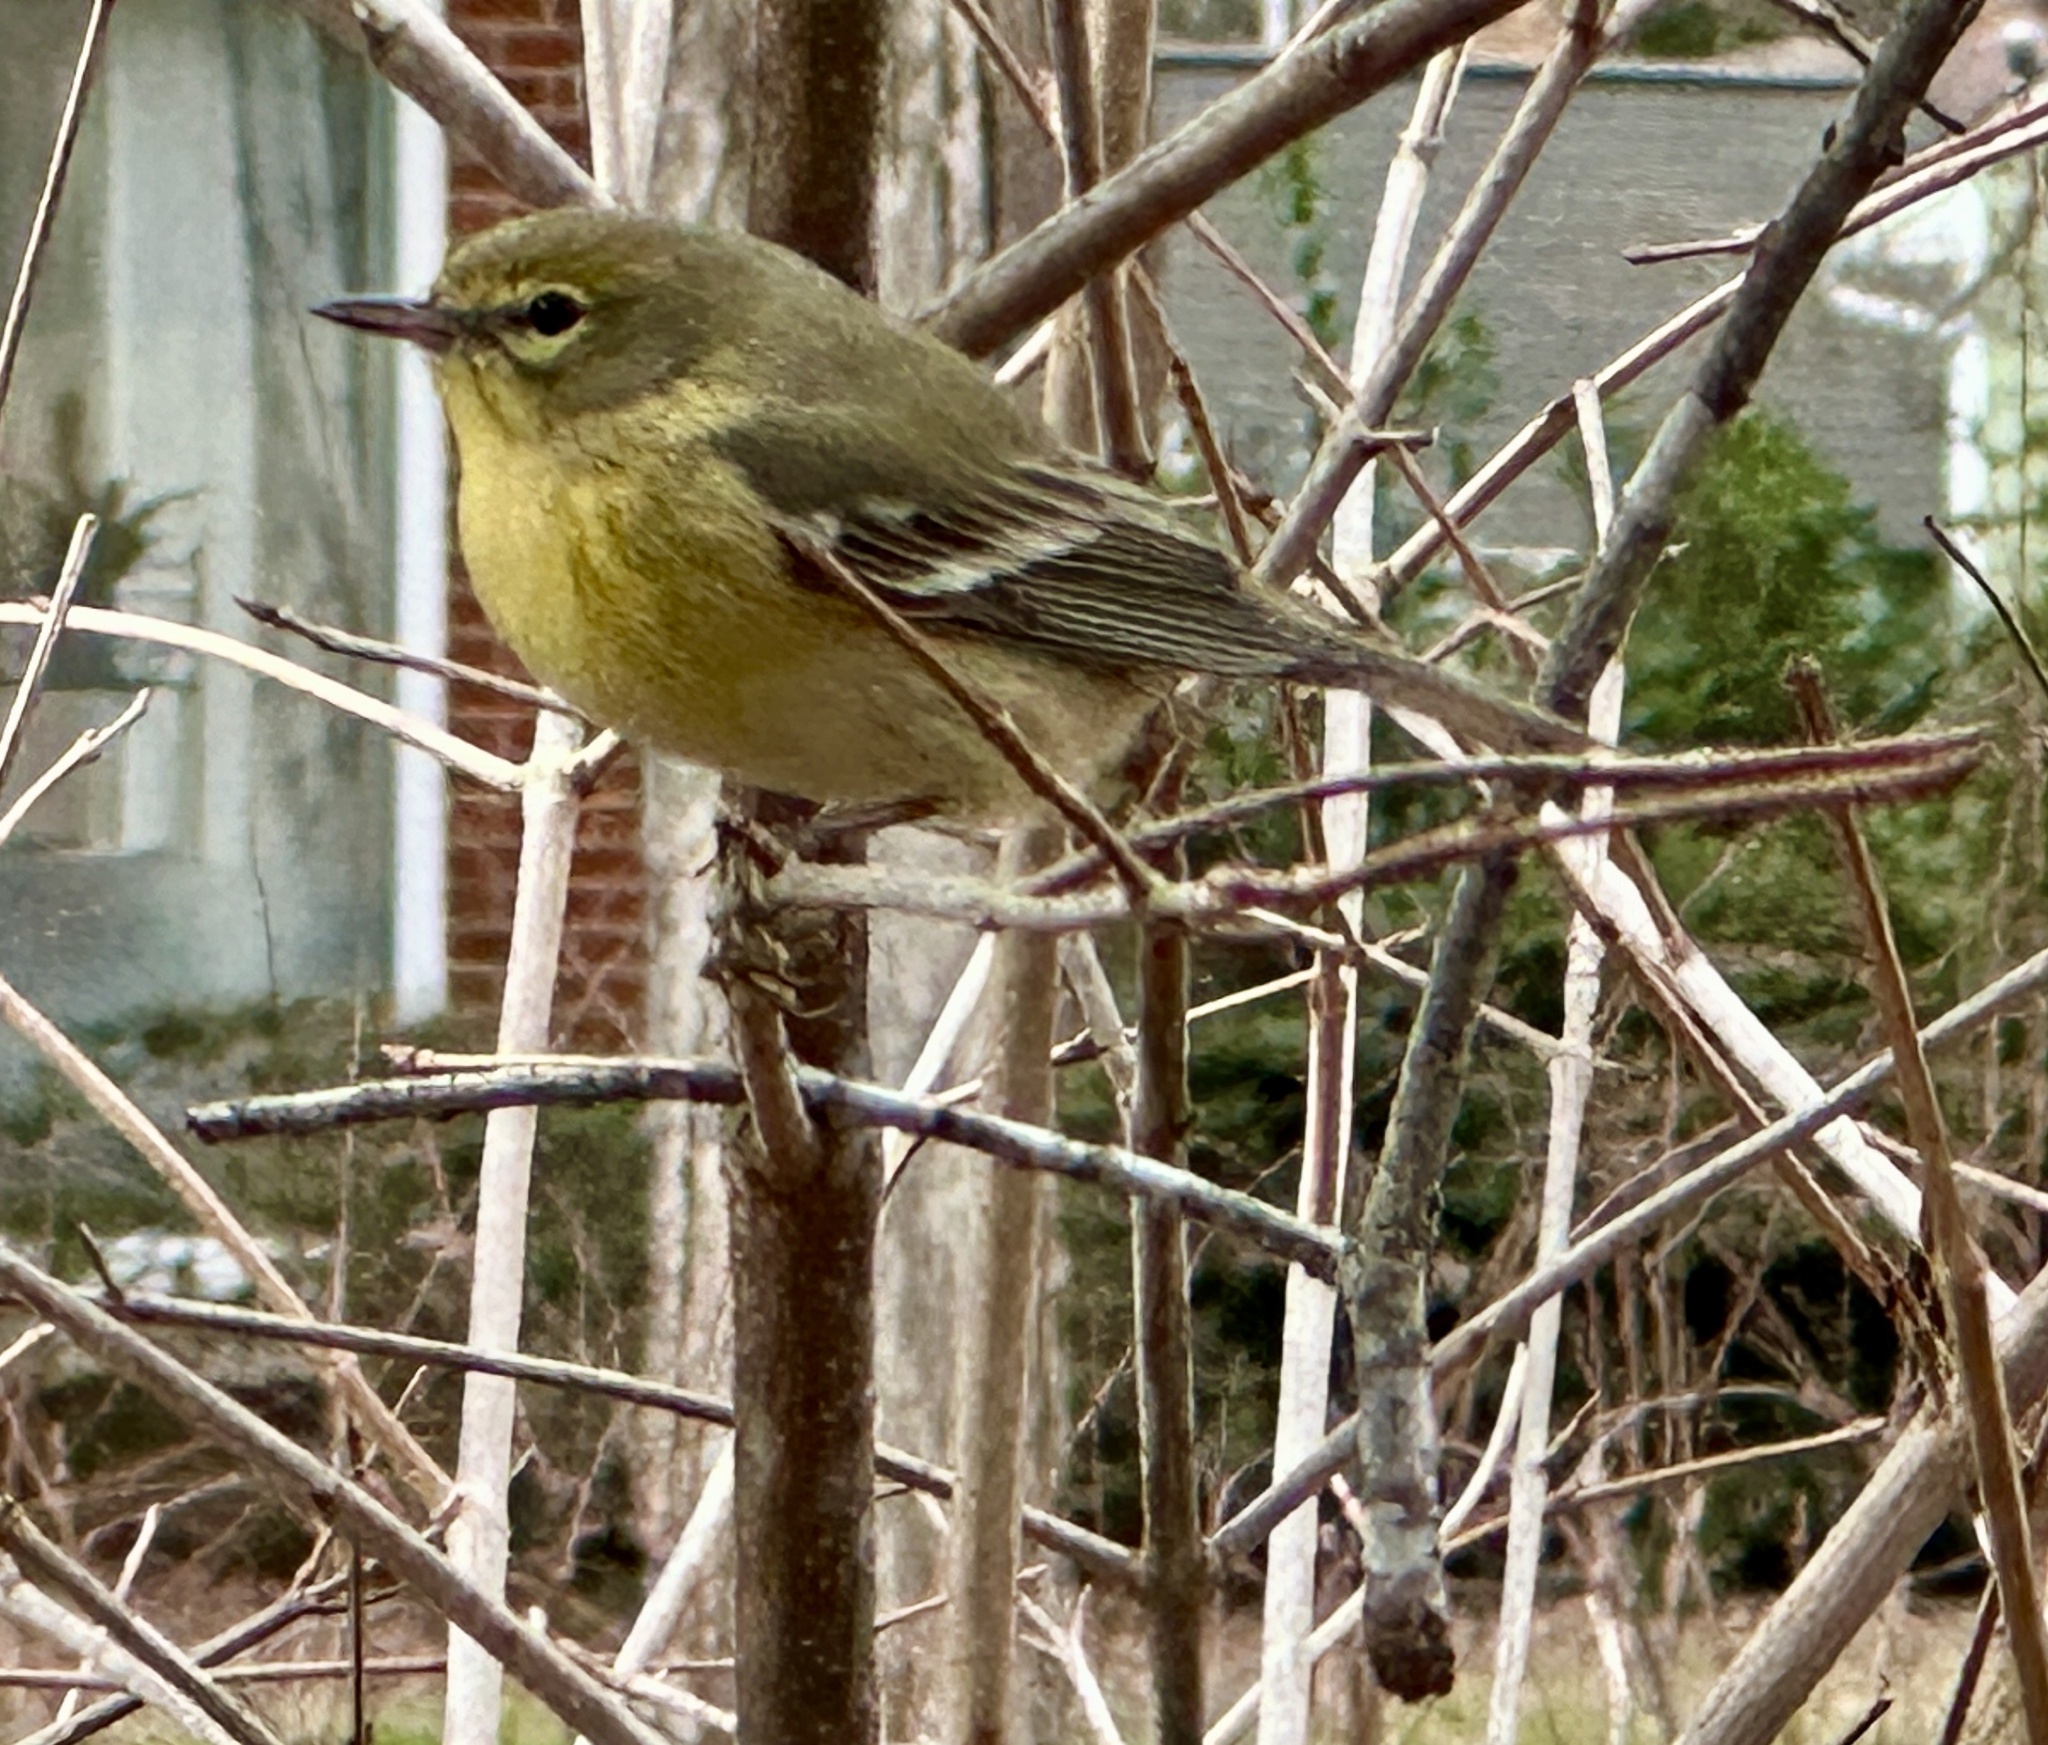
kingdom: Animalia
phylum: Chordata
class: Aves
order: Passeriformes
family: Parulidae
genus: Setophaga
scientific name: Setophaga pinus
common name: Pine warbler
